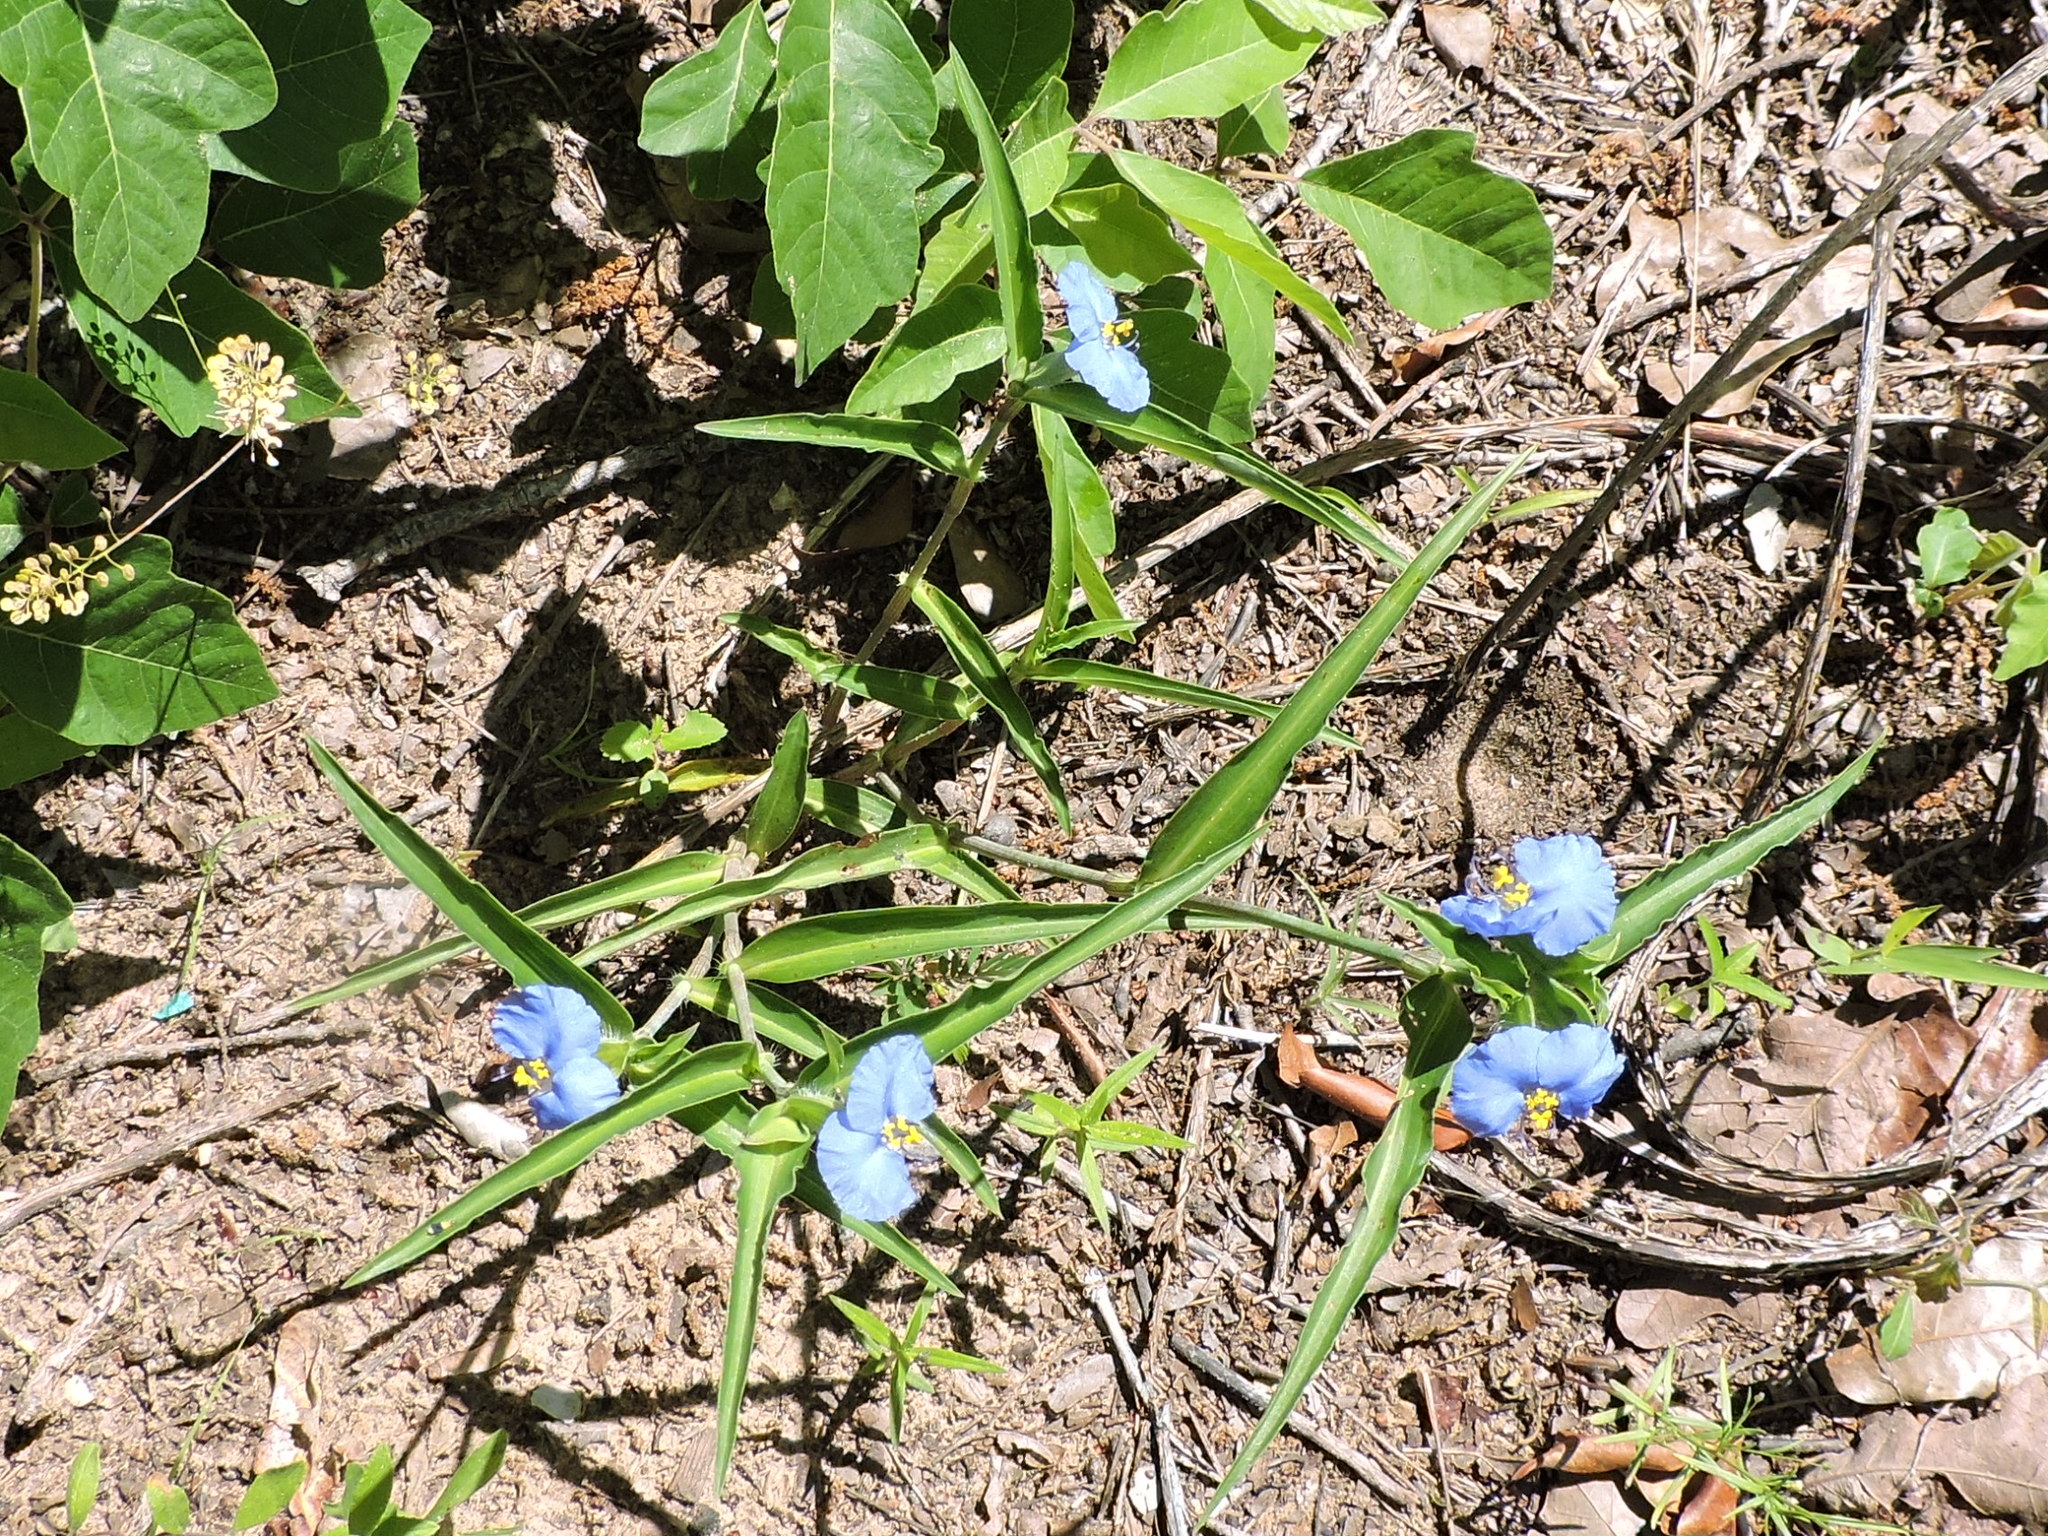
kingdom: Plantae
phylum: Tracheophyta
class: Liliopsida
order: Commelinales
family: Commelinaceae
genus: Commelina
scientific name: Commelina erecta
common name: Blousel blommetjie
